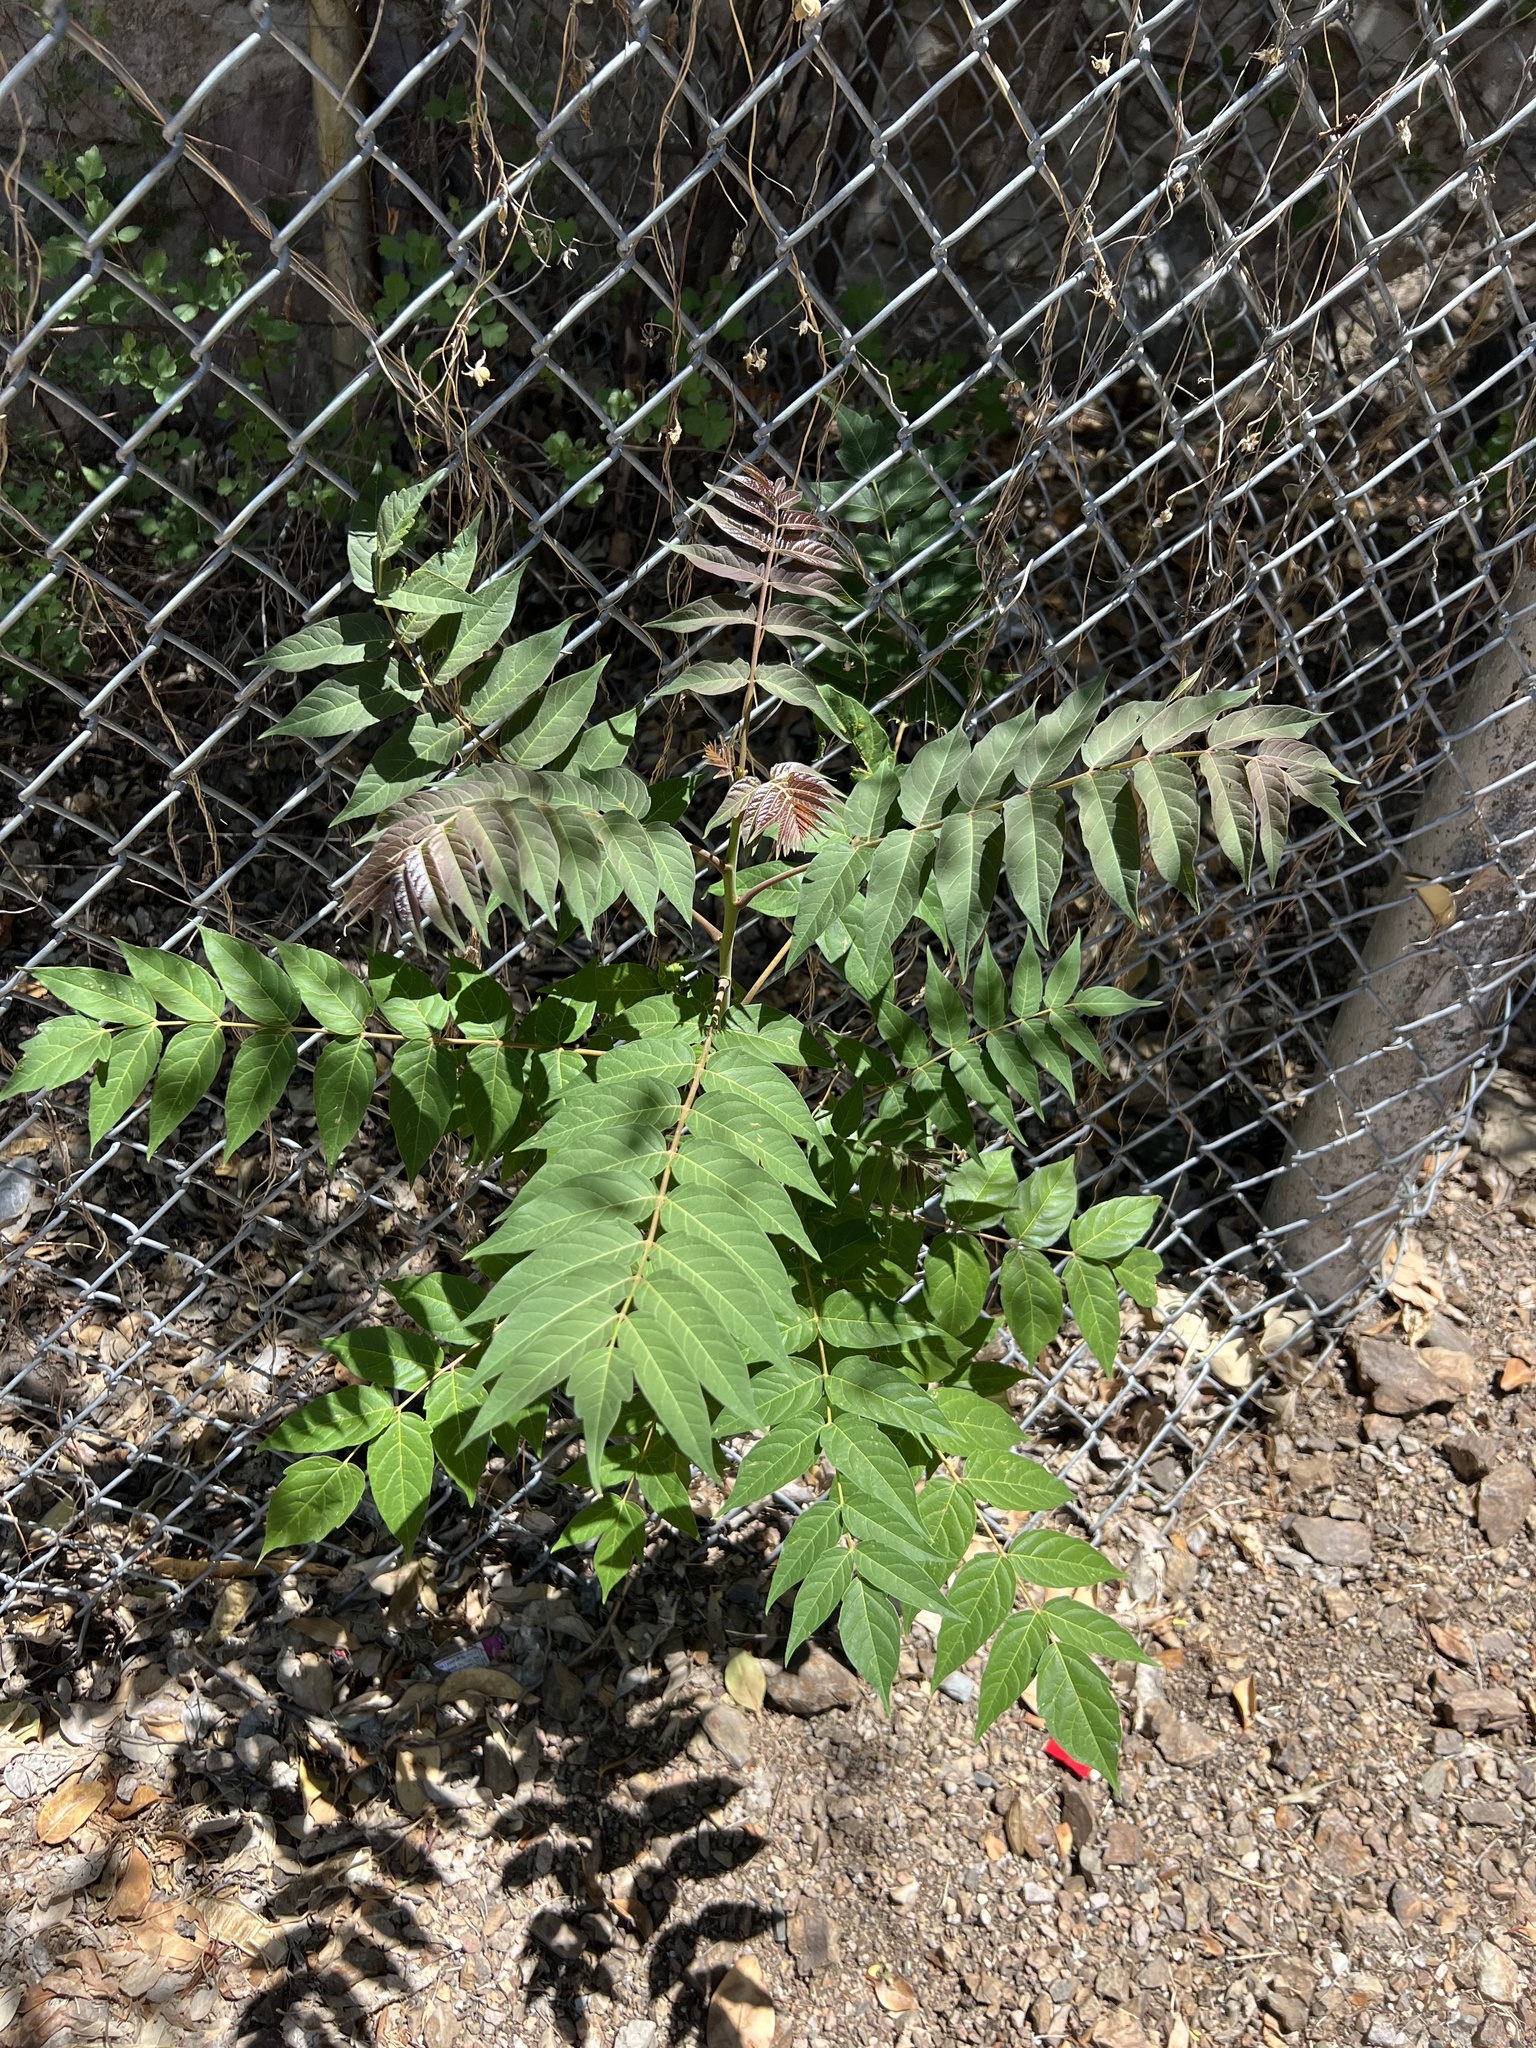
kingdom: Plantae
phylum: Tracheophyta
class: Magnoliopsida
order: Sapindales
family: Simaroubaceae
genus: Ailanthus
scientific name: Ailanthus altissima
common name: Tree-of-heaven
